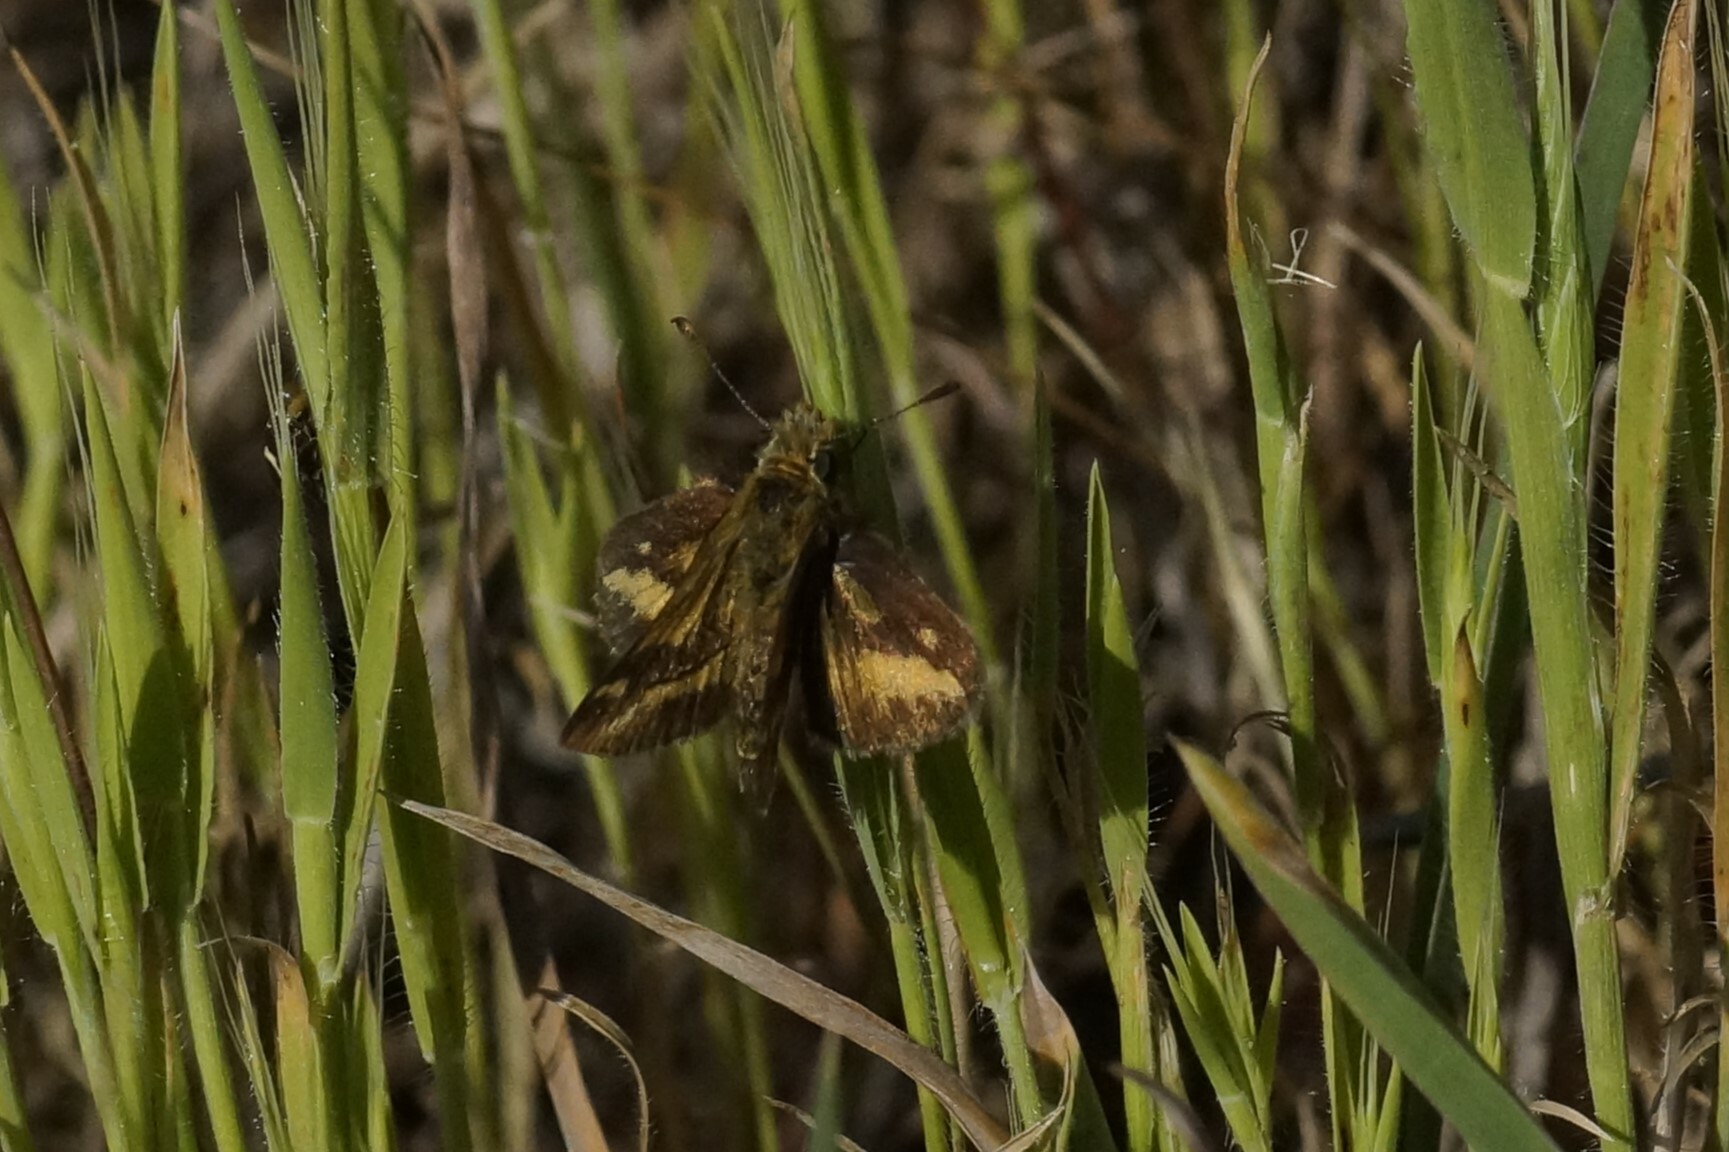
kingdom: Animalia
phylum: Arthropoda
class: Insecta
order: Lepidoptera
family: Hesperiidae
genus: Taractrocera
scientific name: Taractrocera papyria
